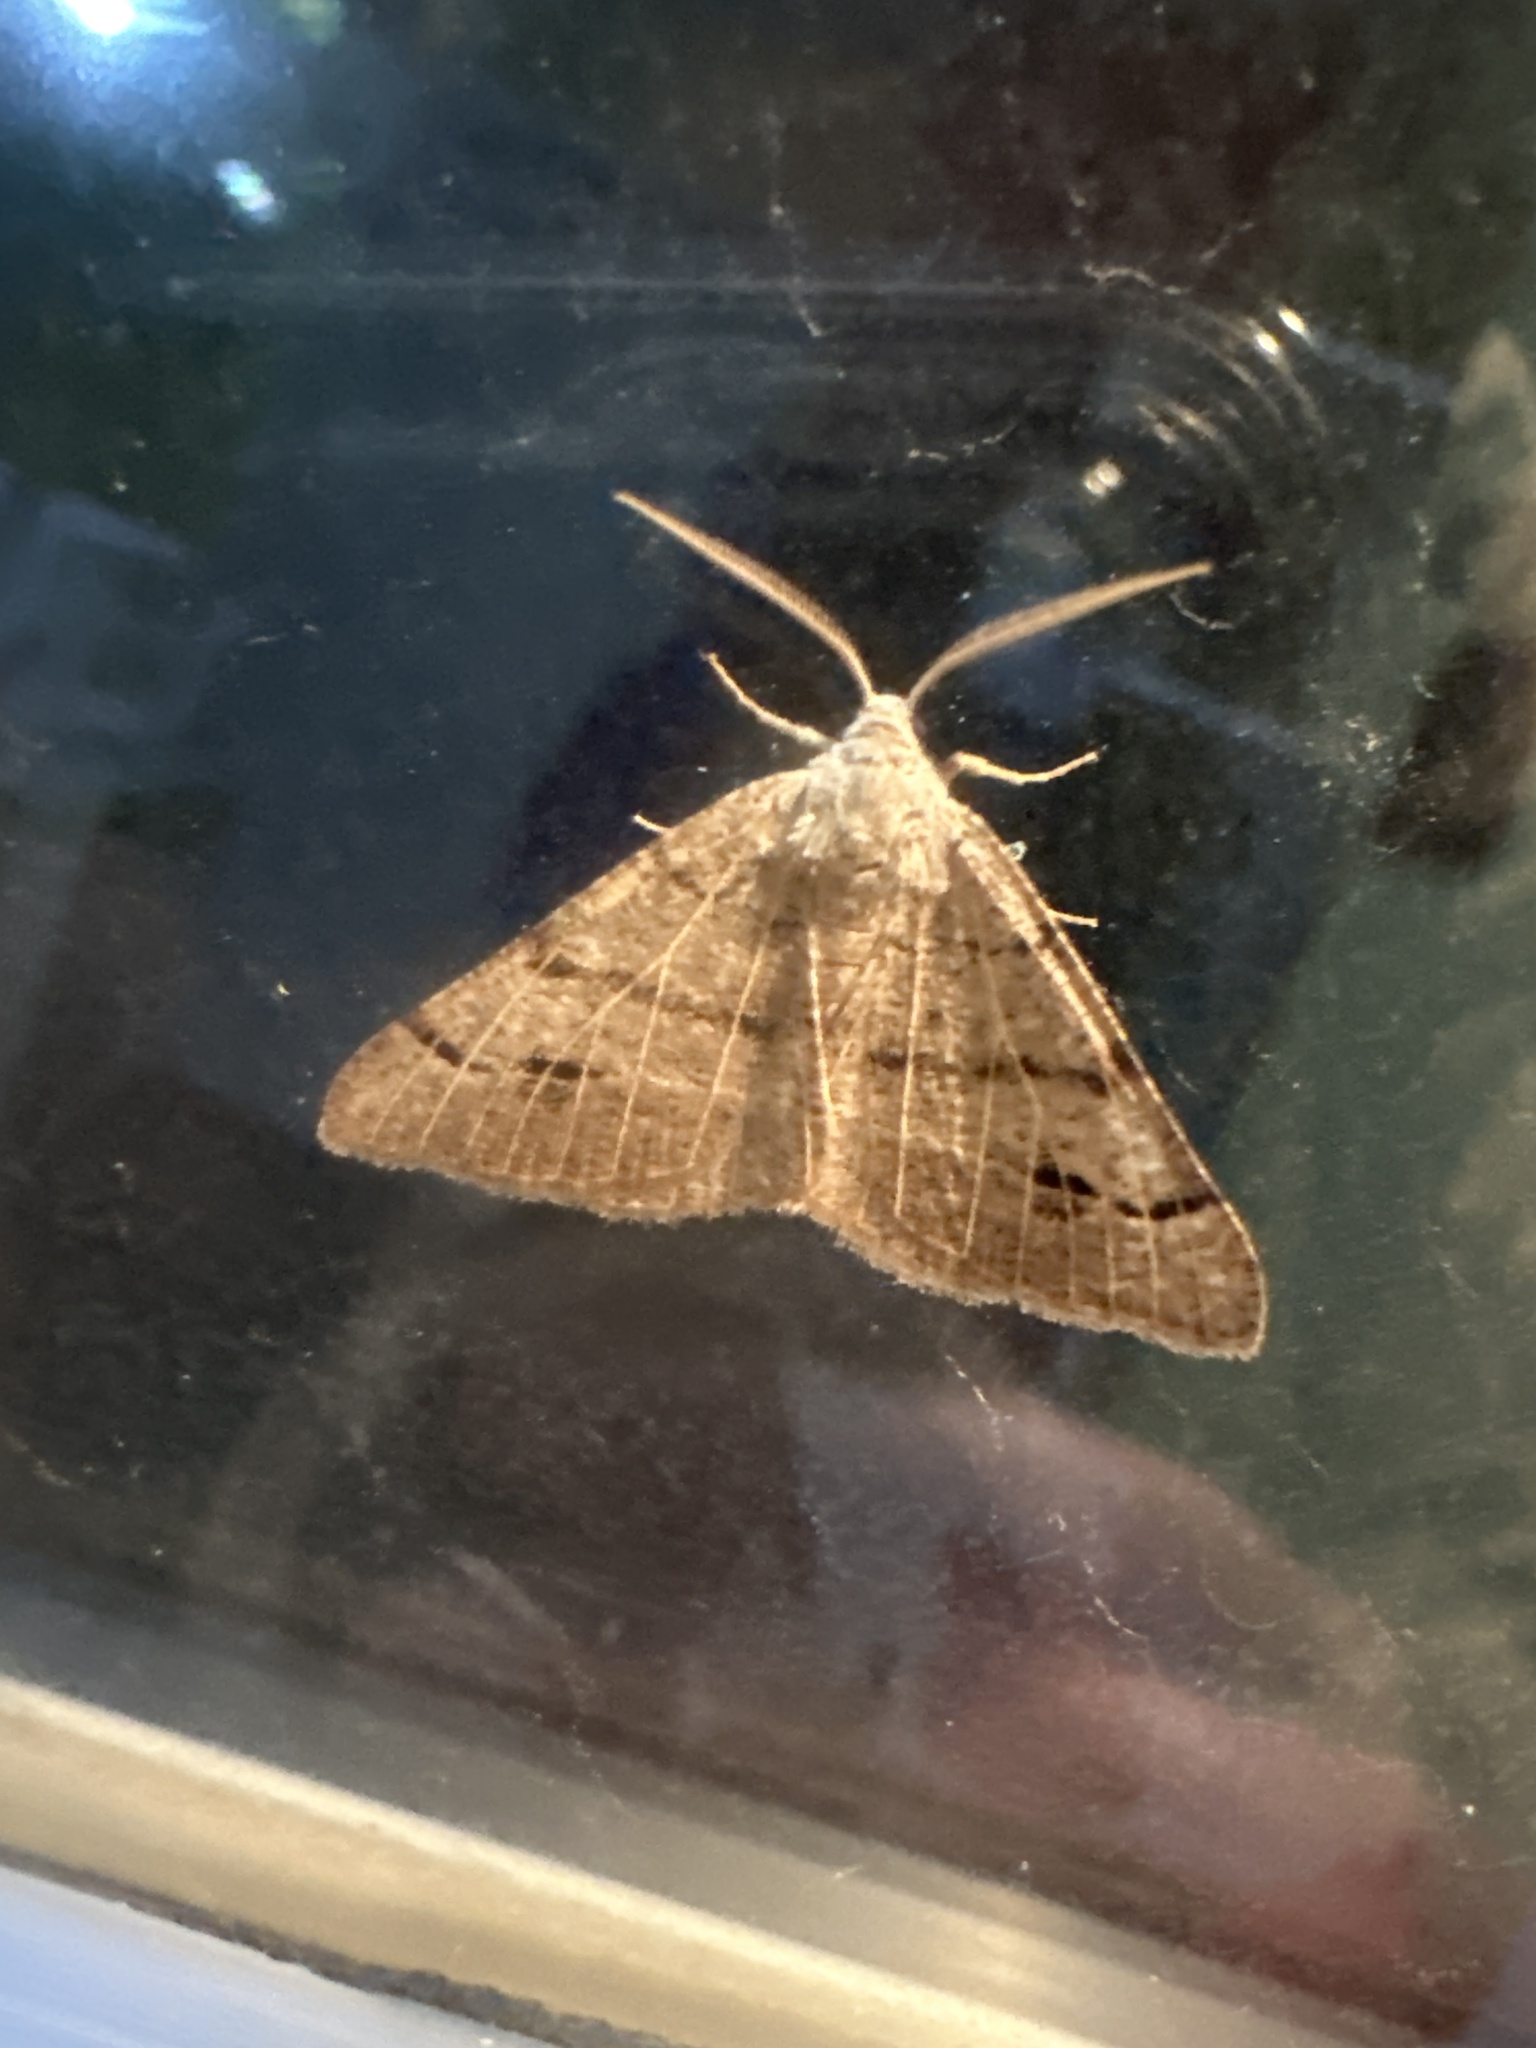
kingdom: Animalia
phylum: Arthropoda
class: Insecta
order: Lepidoptera
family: Geometridae
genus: Isturgia
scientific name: Isturgia dislocaria
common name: Pale-viened enconista
